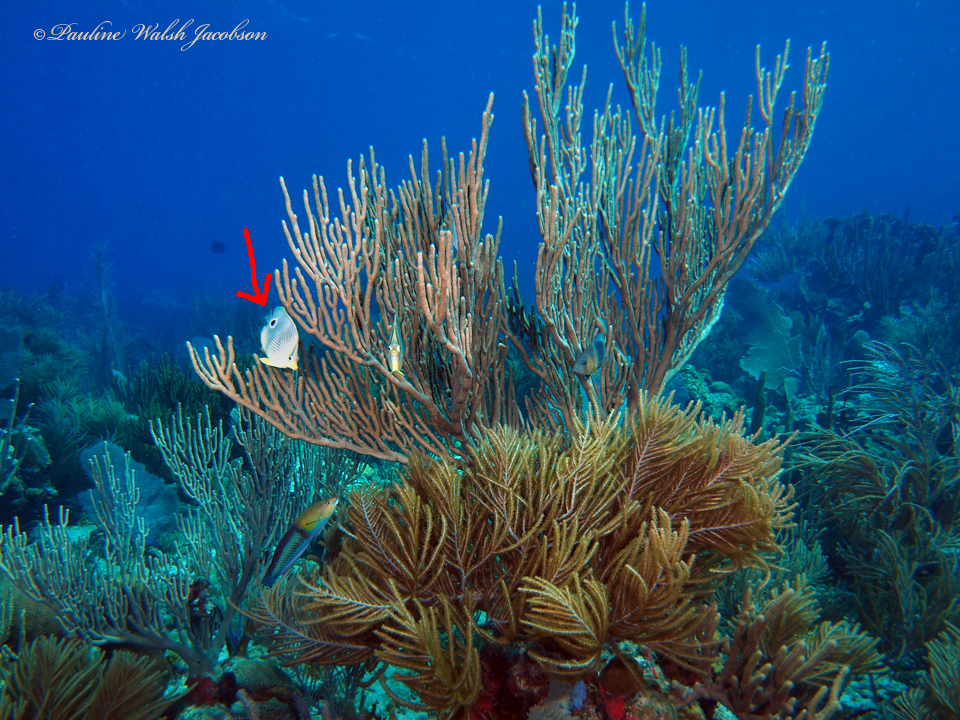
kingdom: Animalia
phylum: Chordata
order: Perciformes
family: Chaetodontidae
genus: Chaetodon
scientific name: Chaetodon capistratus
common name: Kete
